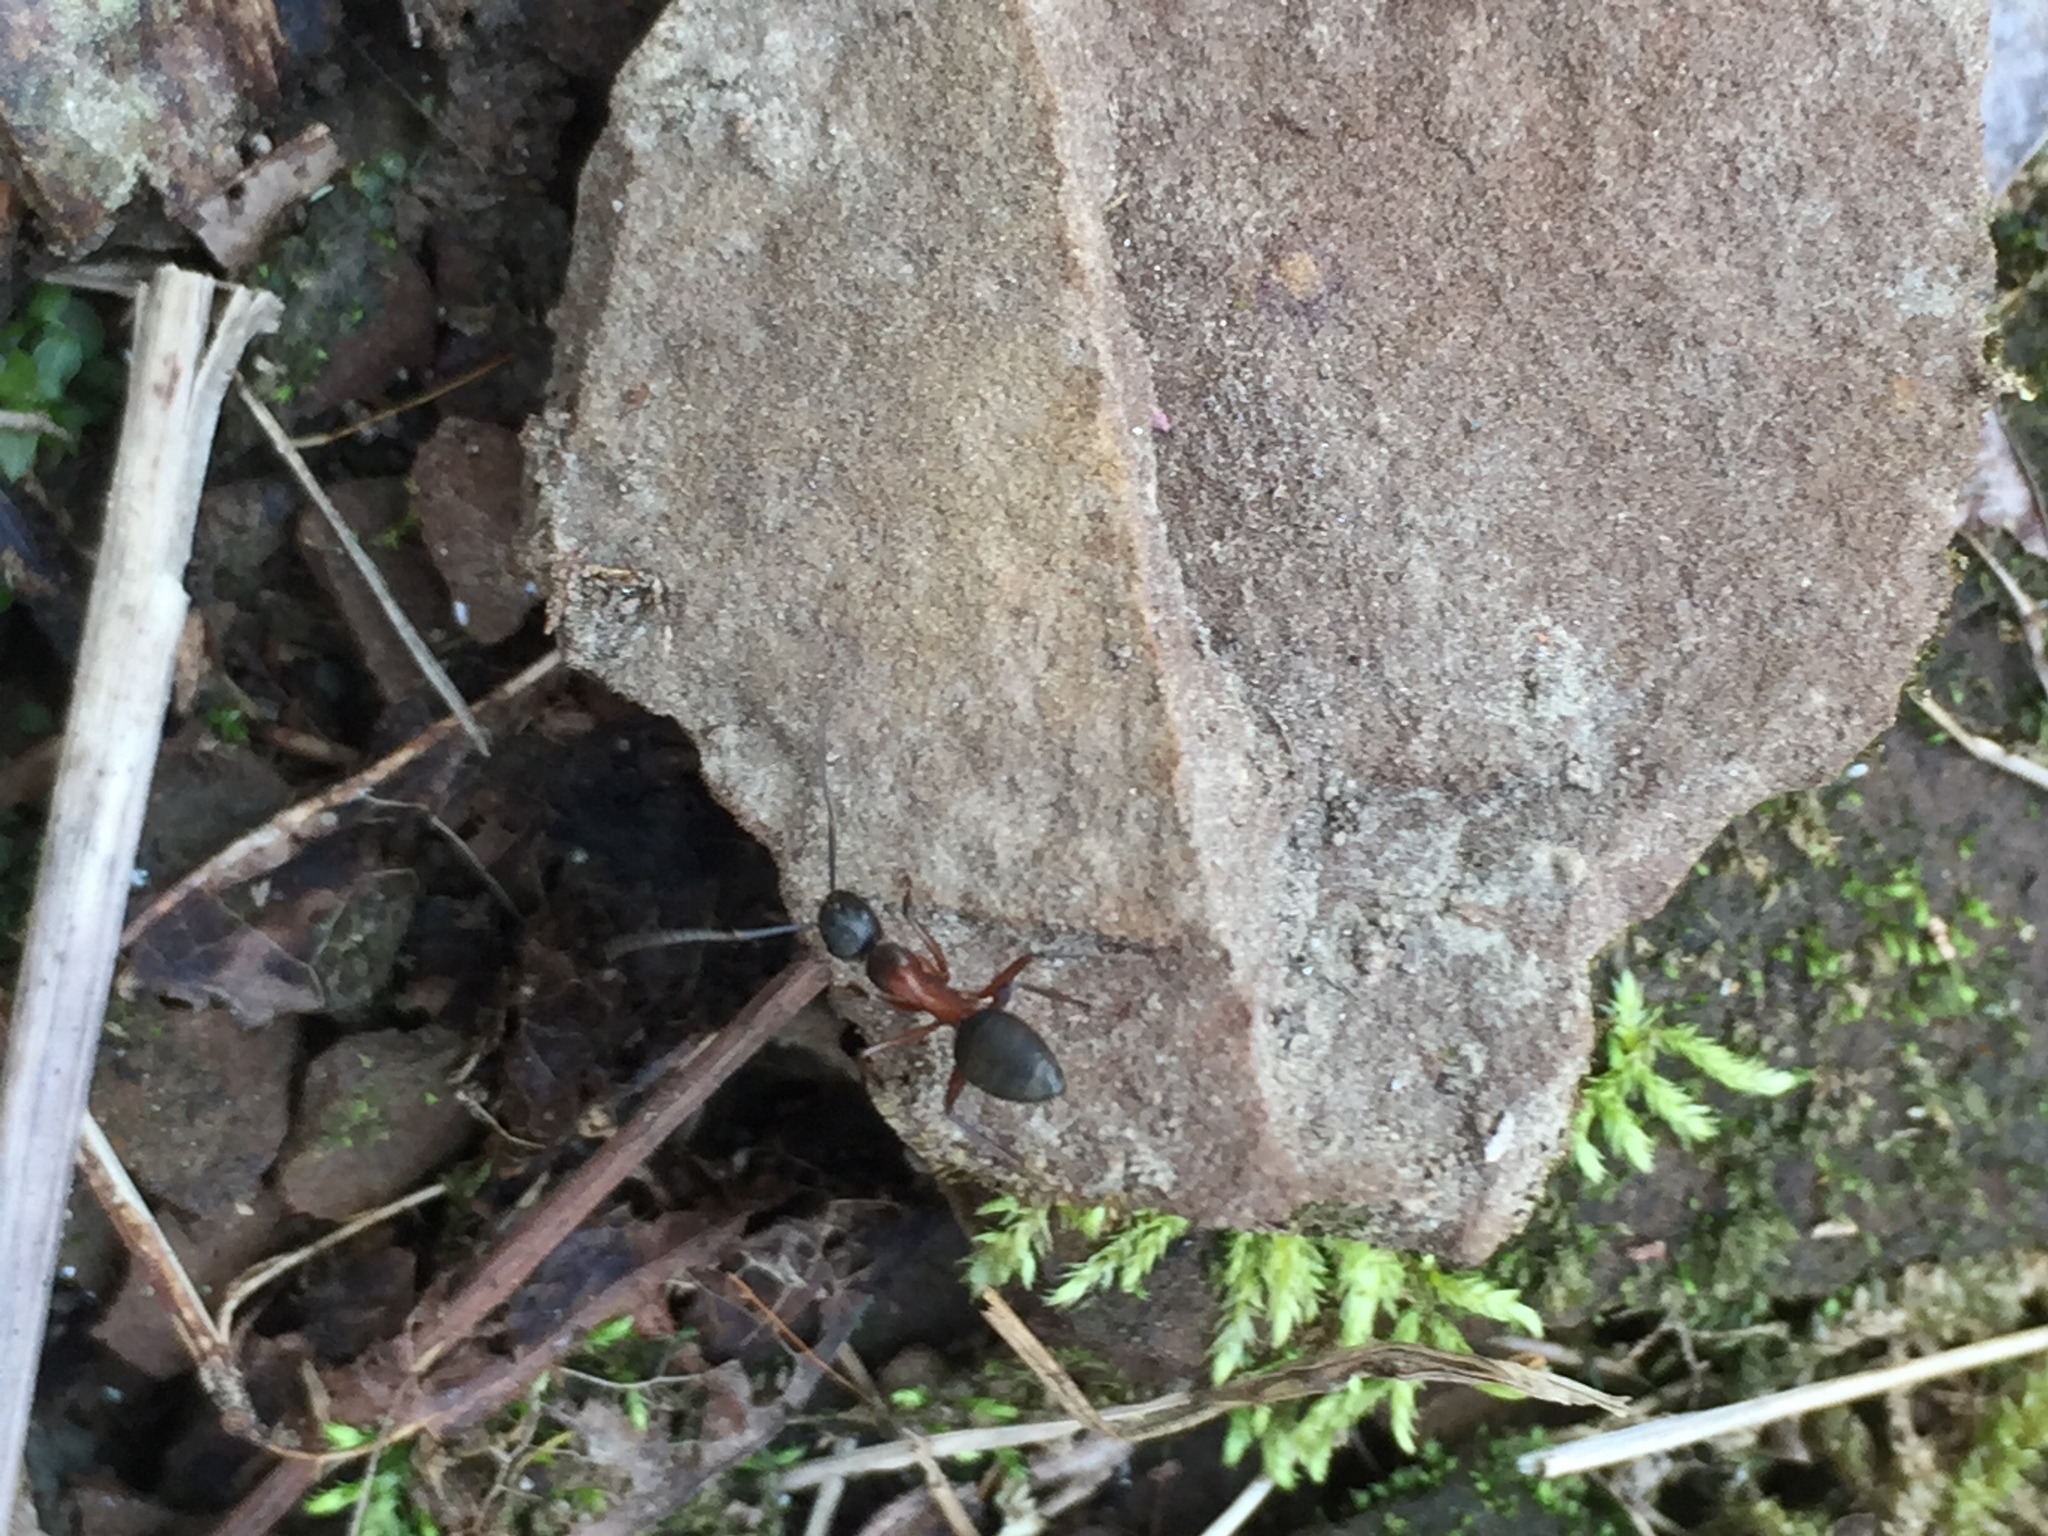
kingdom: Animalia
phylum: Arthropoda
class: Insecta
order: Hymenoptera
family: Formicidae
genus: Camponotus
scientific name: Camponotus chromaiodes
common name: Red carpenter ant
